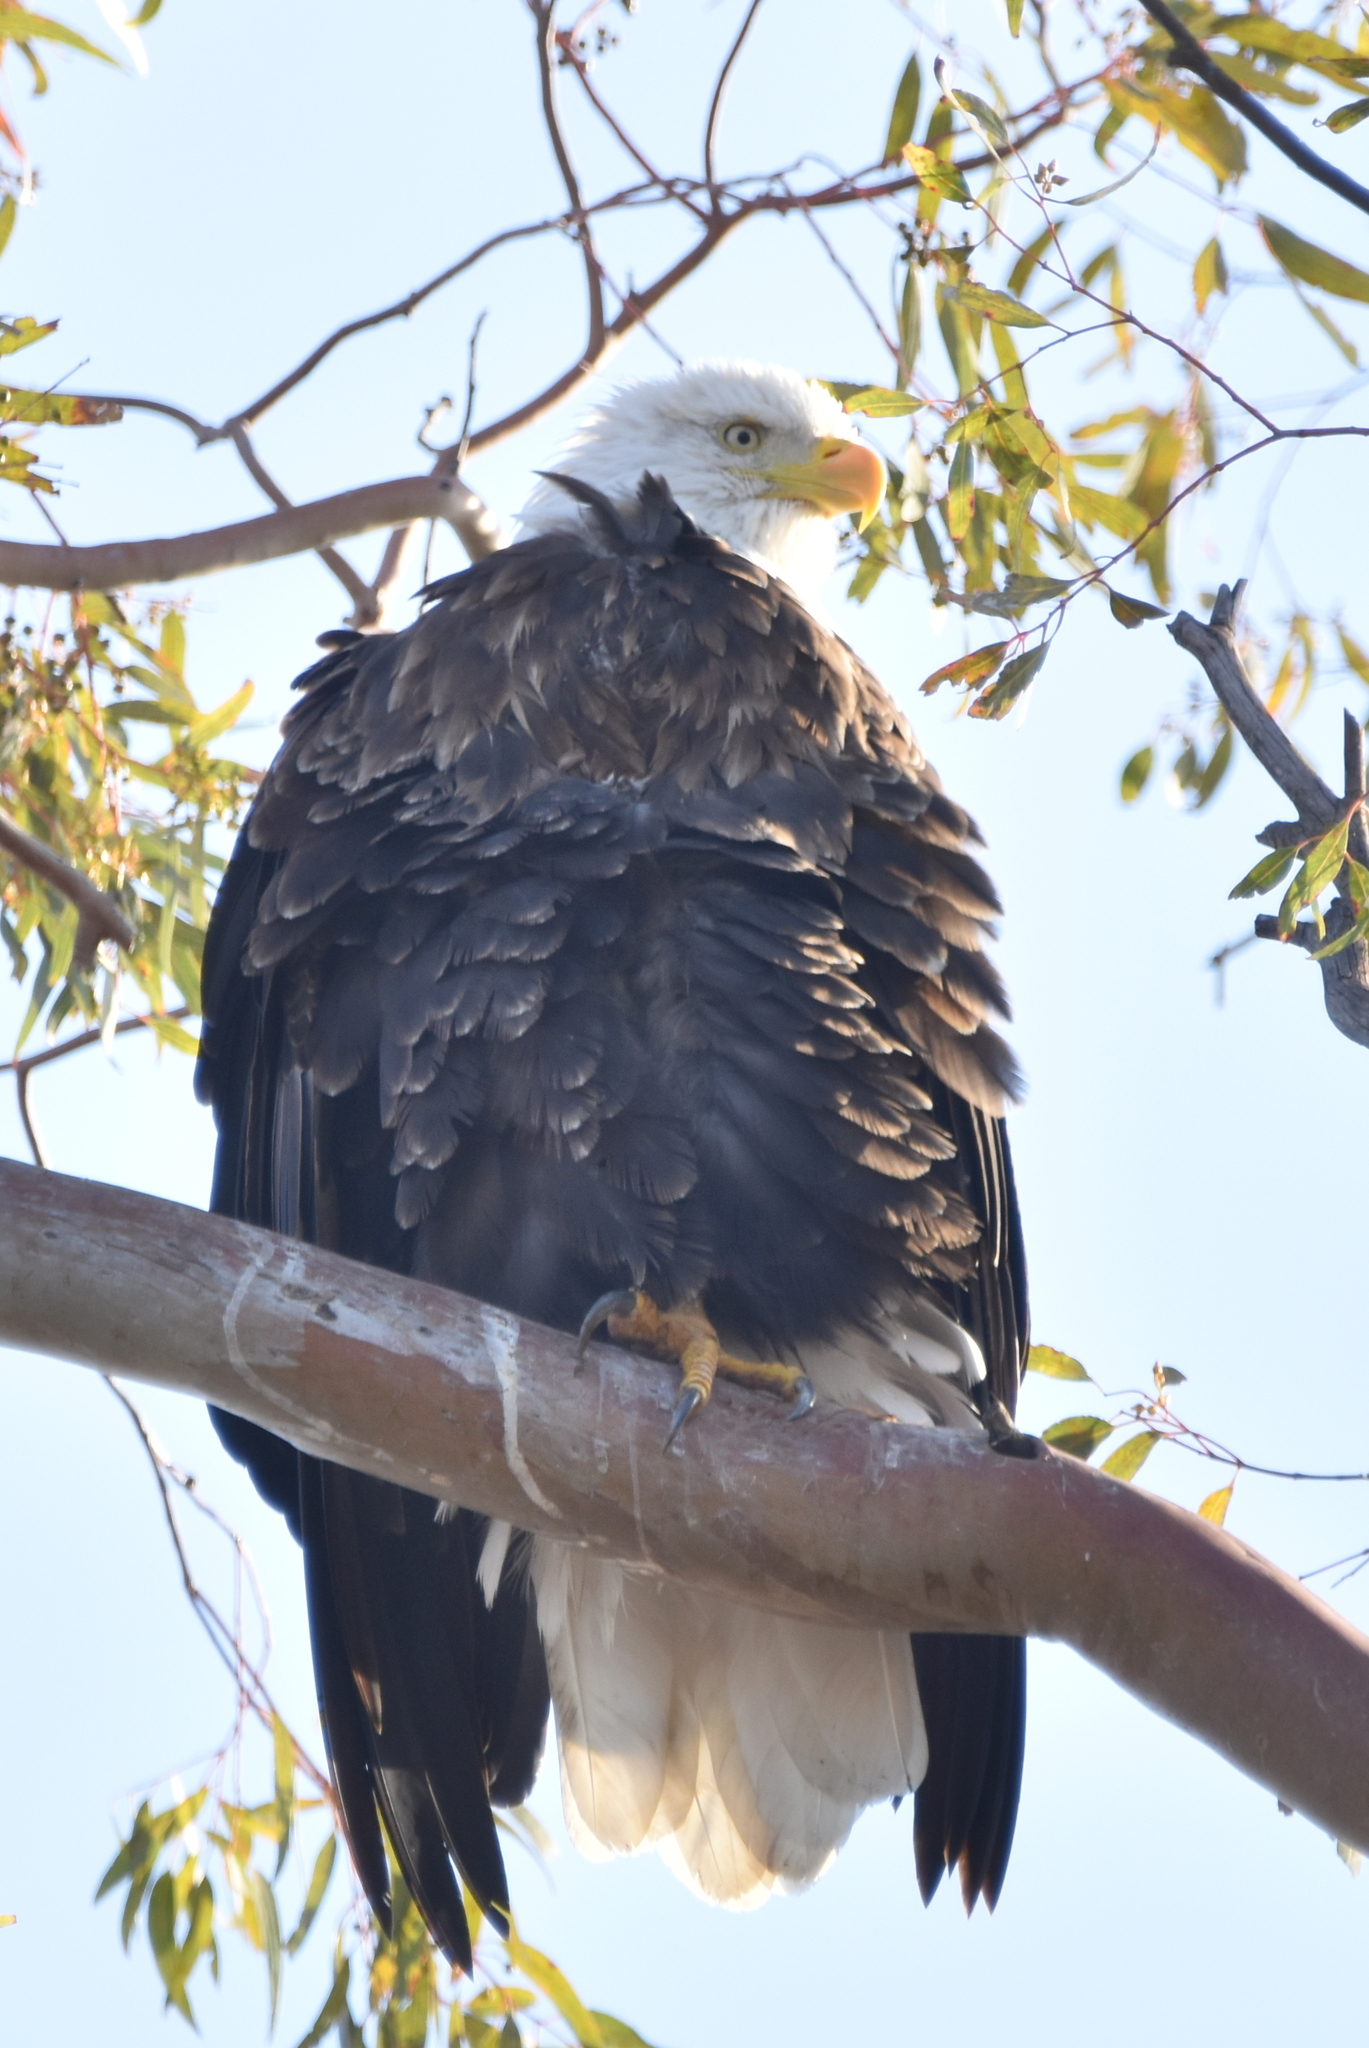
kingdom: Animalia
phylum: Chordata
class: Aves
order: Accipitriformes
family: Accipitridae
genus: Haliaeetus
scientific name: Haliaeetus leucocephalus
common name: Bald eagle
